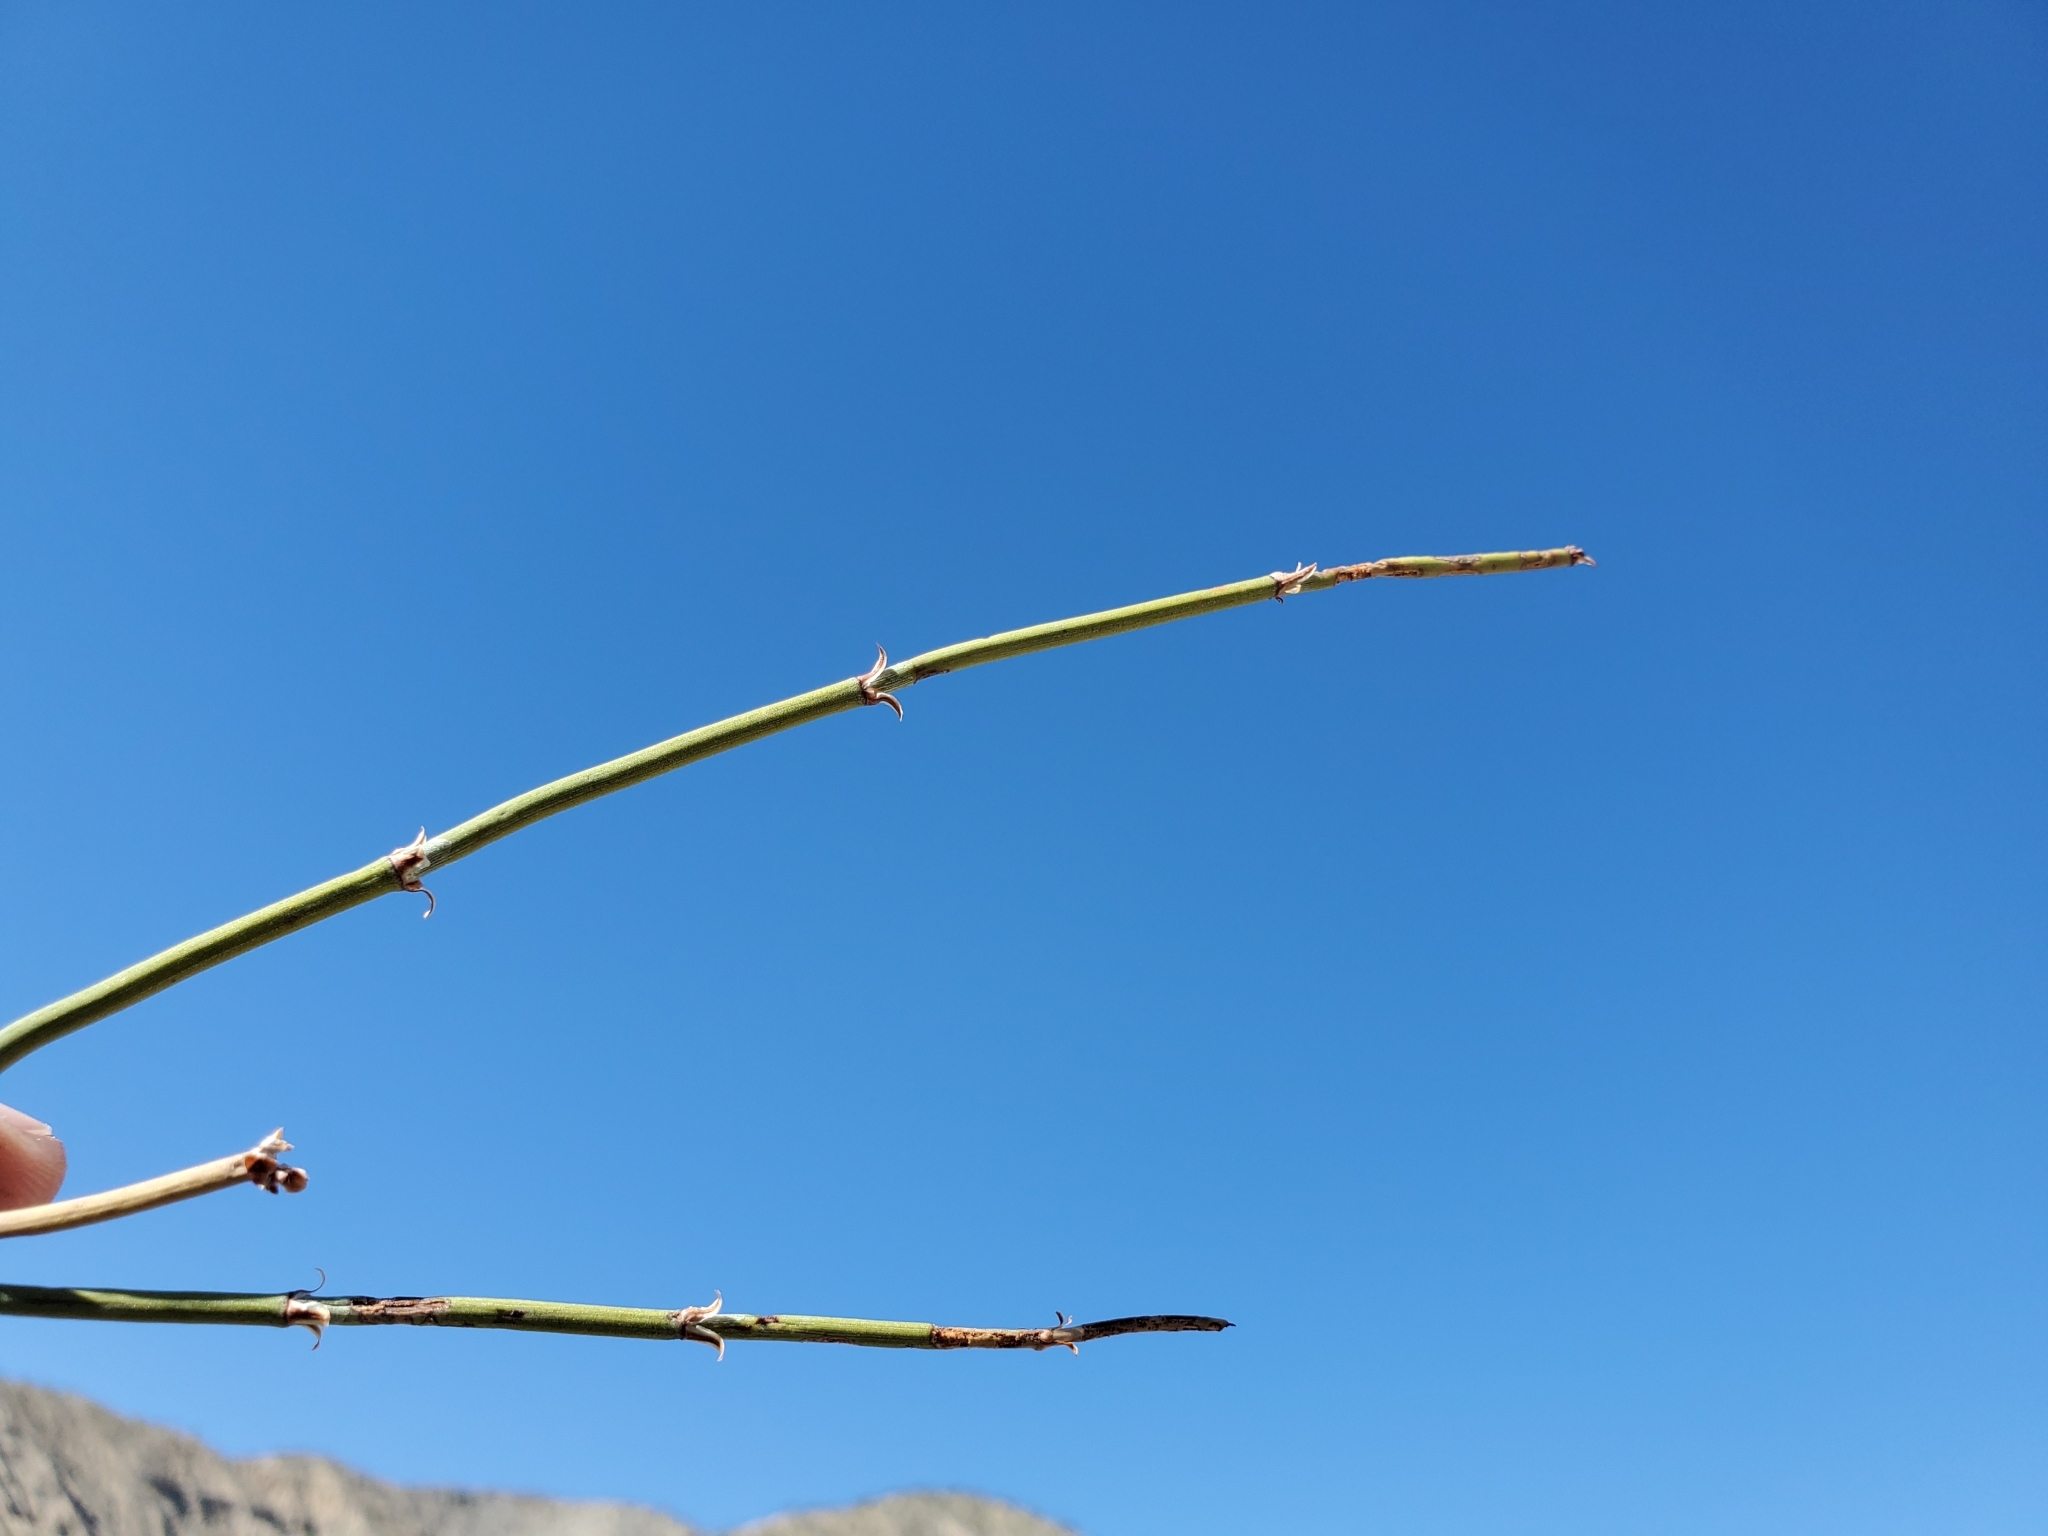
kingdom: Plantae
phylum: Tracheophyta
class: Gnetopsida
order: Ephedrales
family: Ephedraceae
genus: Ephedra
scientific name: Ephedra californica
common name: California ephedra
